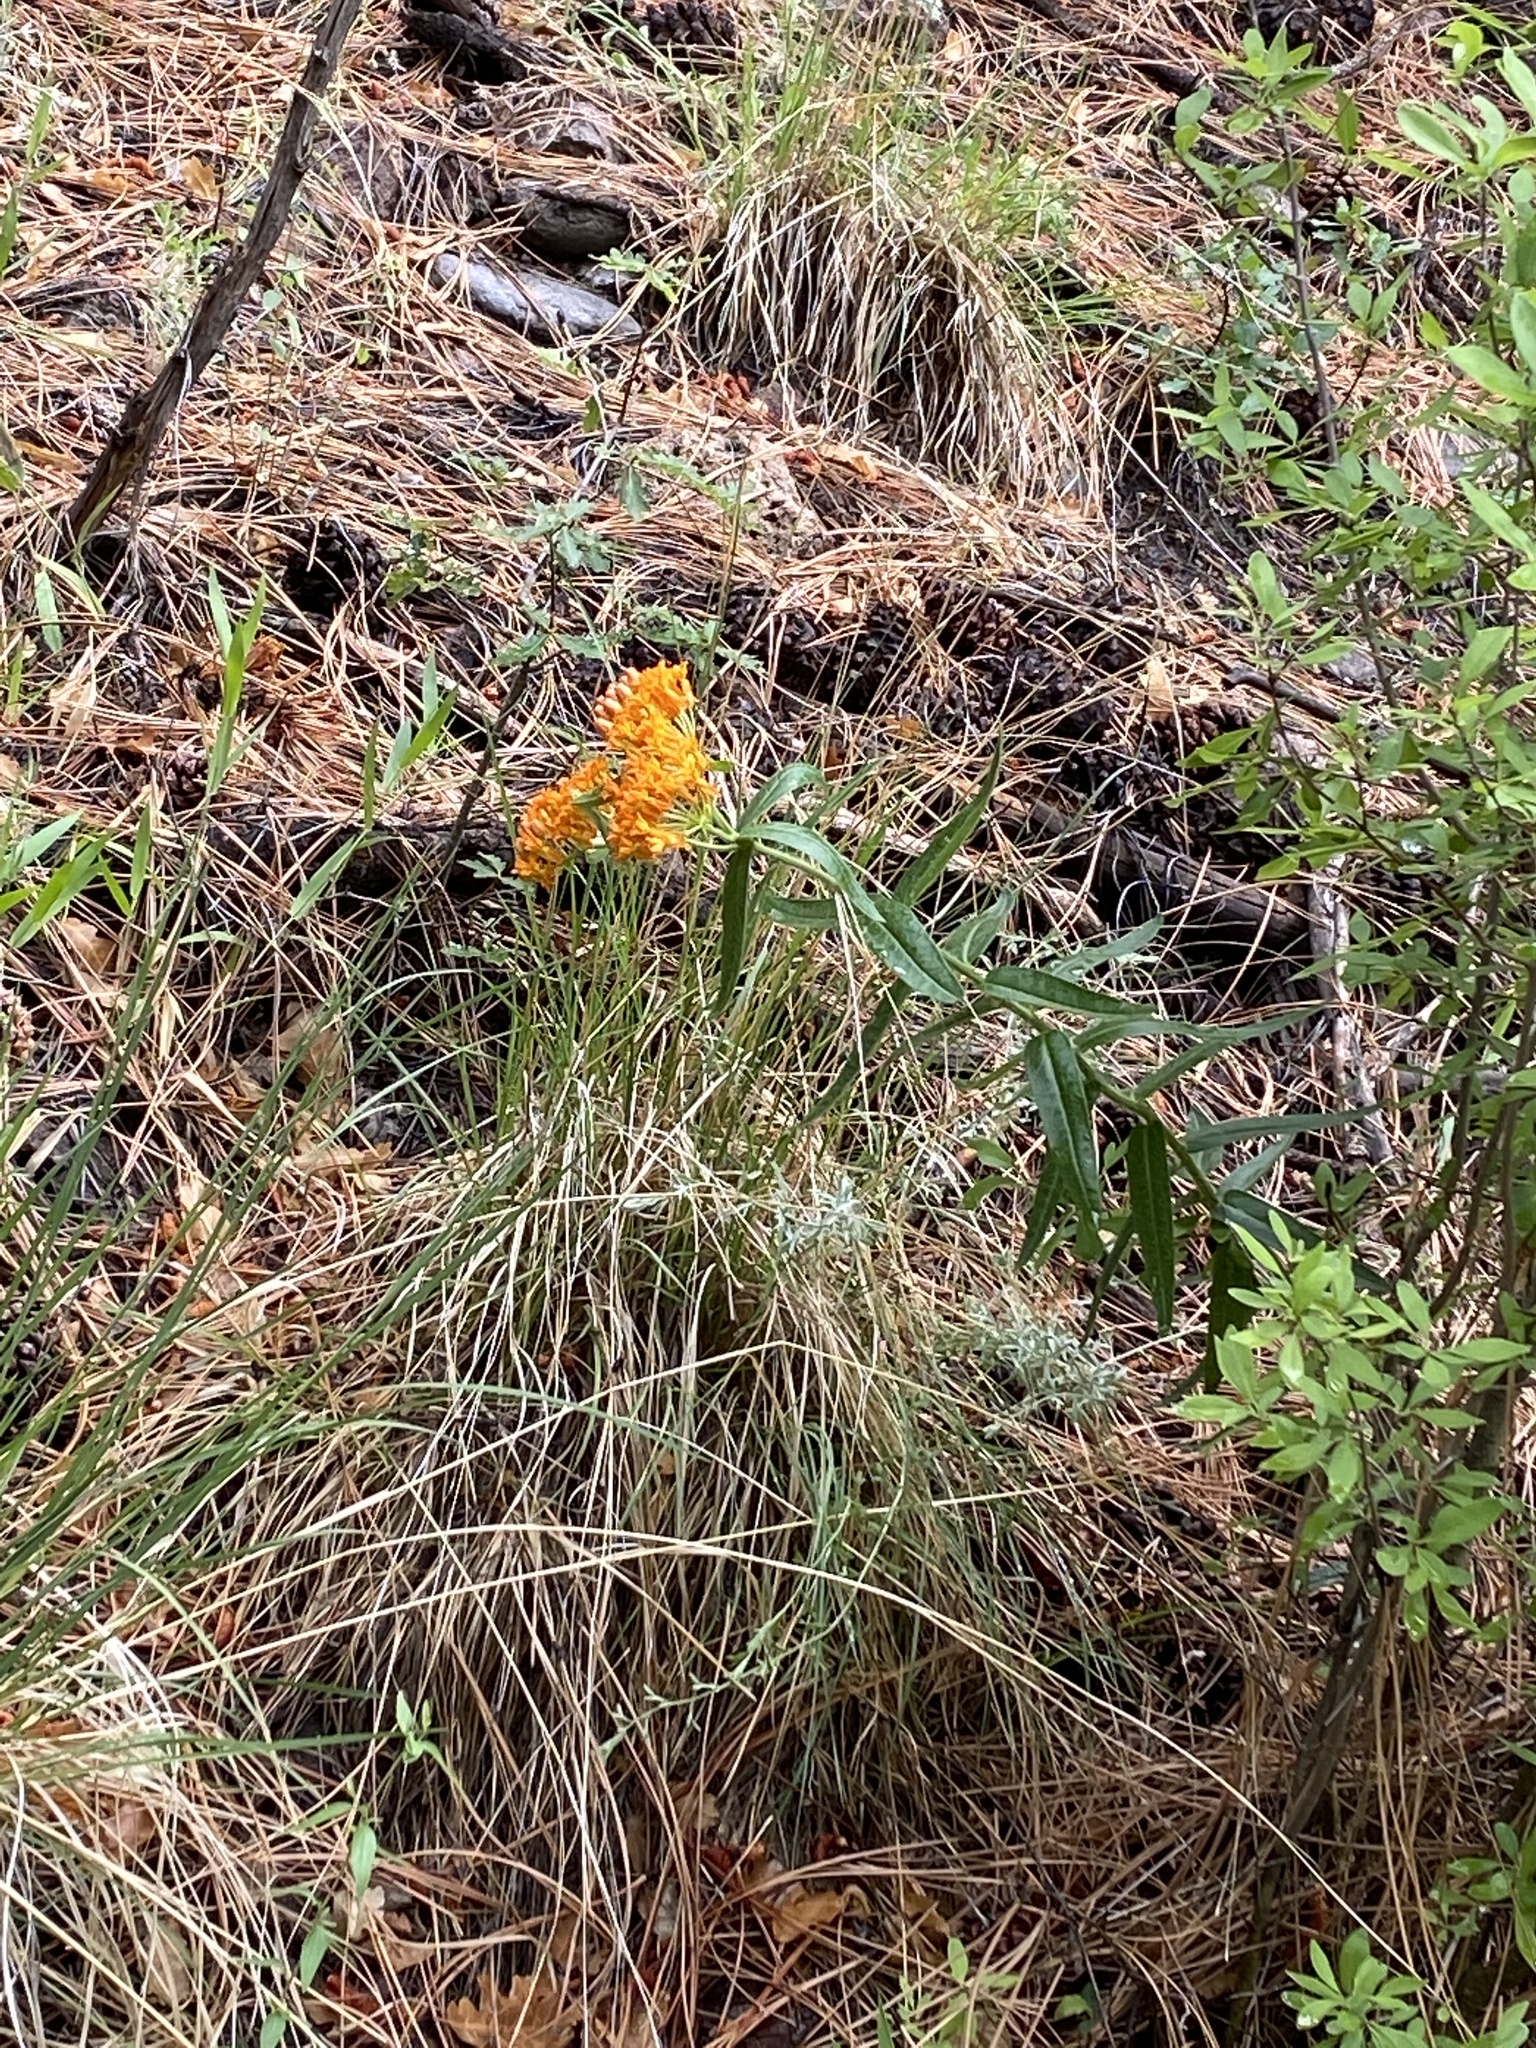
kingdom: Plantae
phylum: Tracheophyta
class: Magnoliopsida
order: Gentianales
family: Apocynaceae
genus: Asclepias
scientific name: Asclepias tuberosa
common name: Butterfly milkweed
